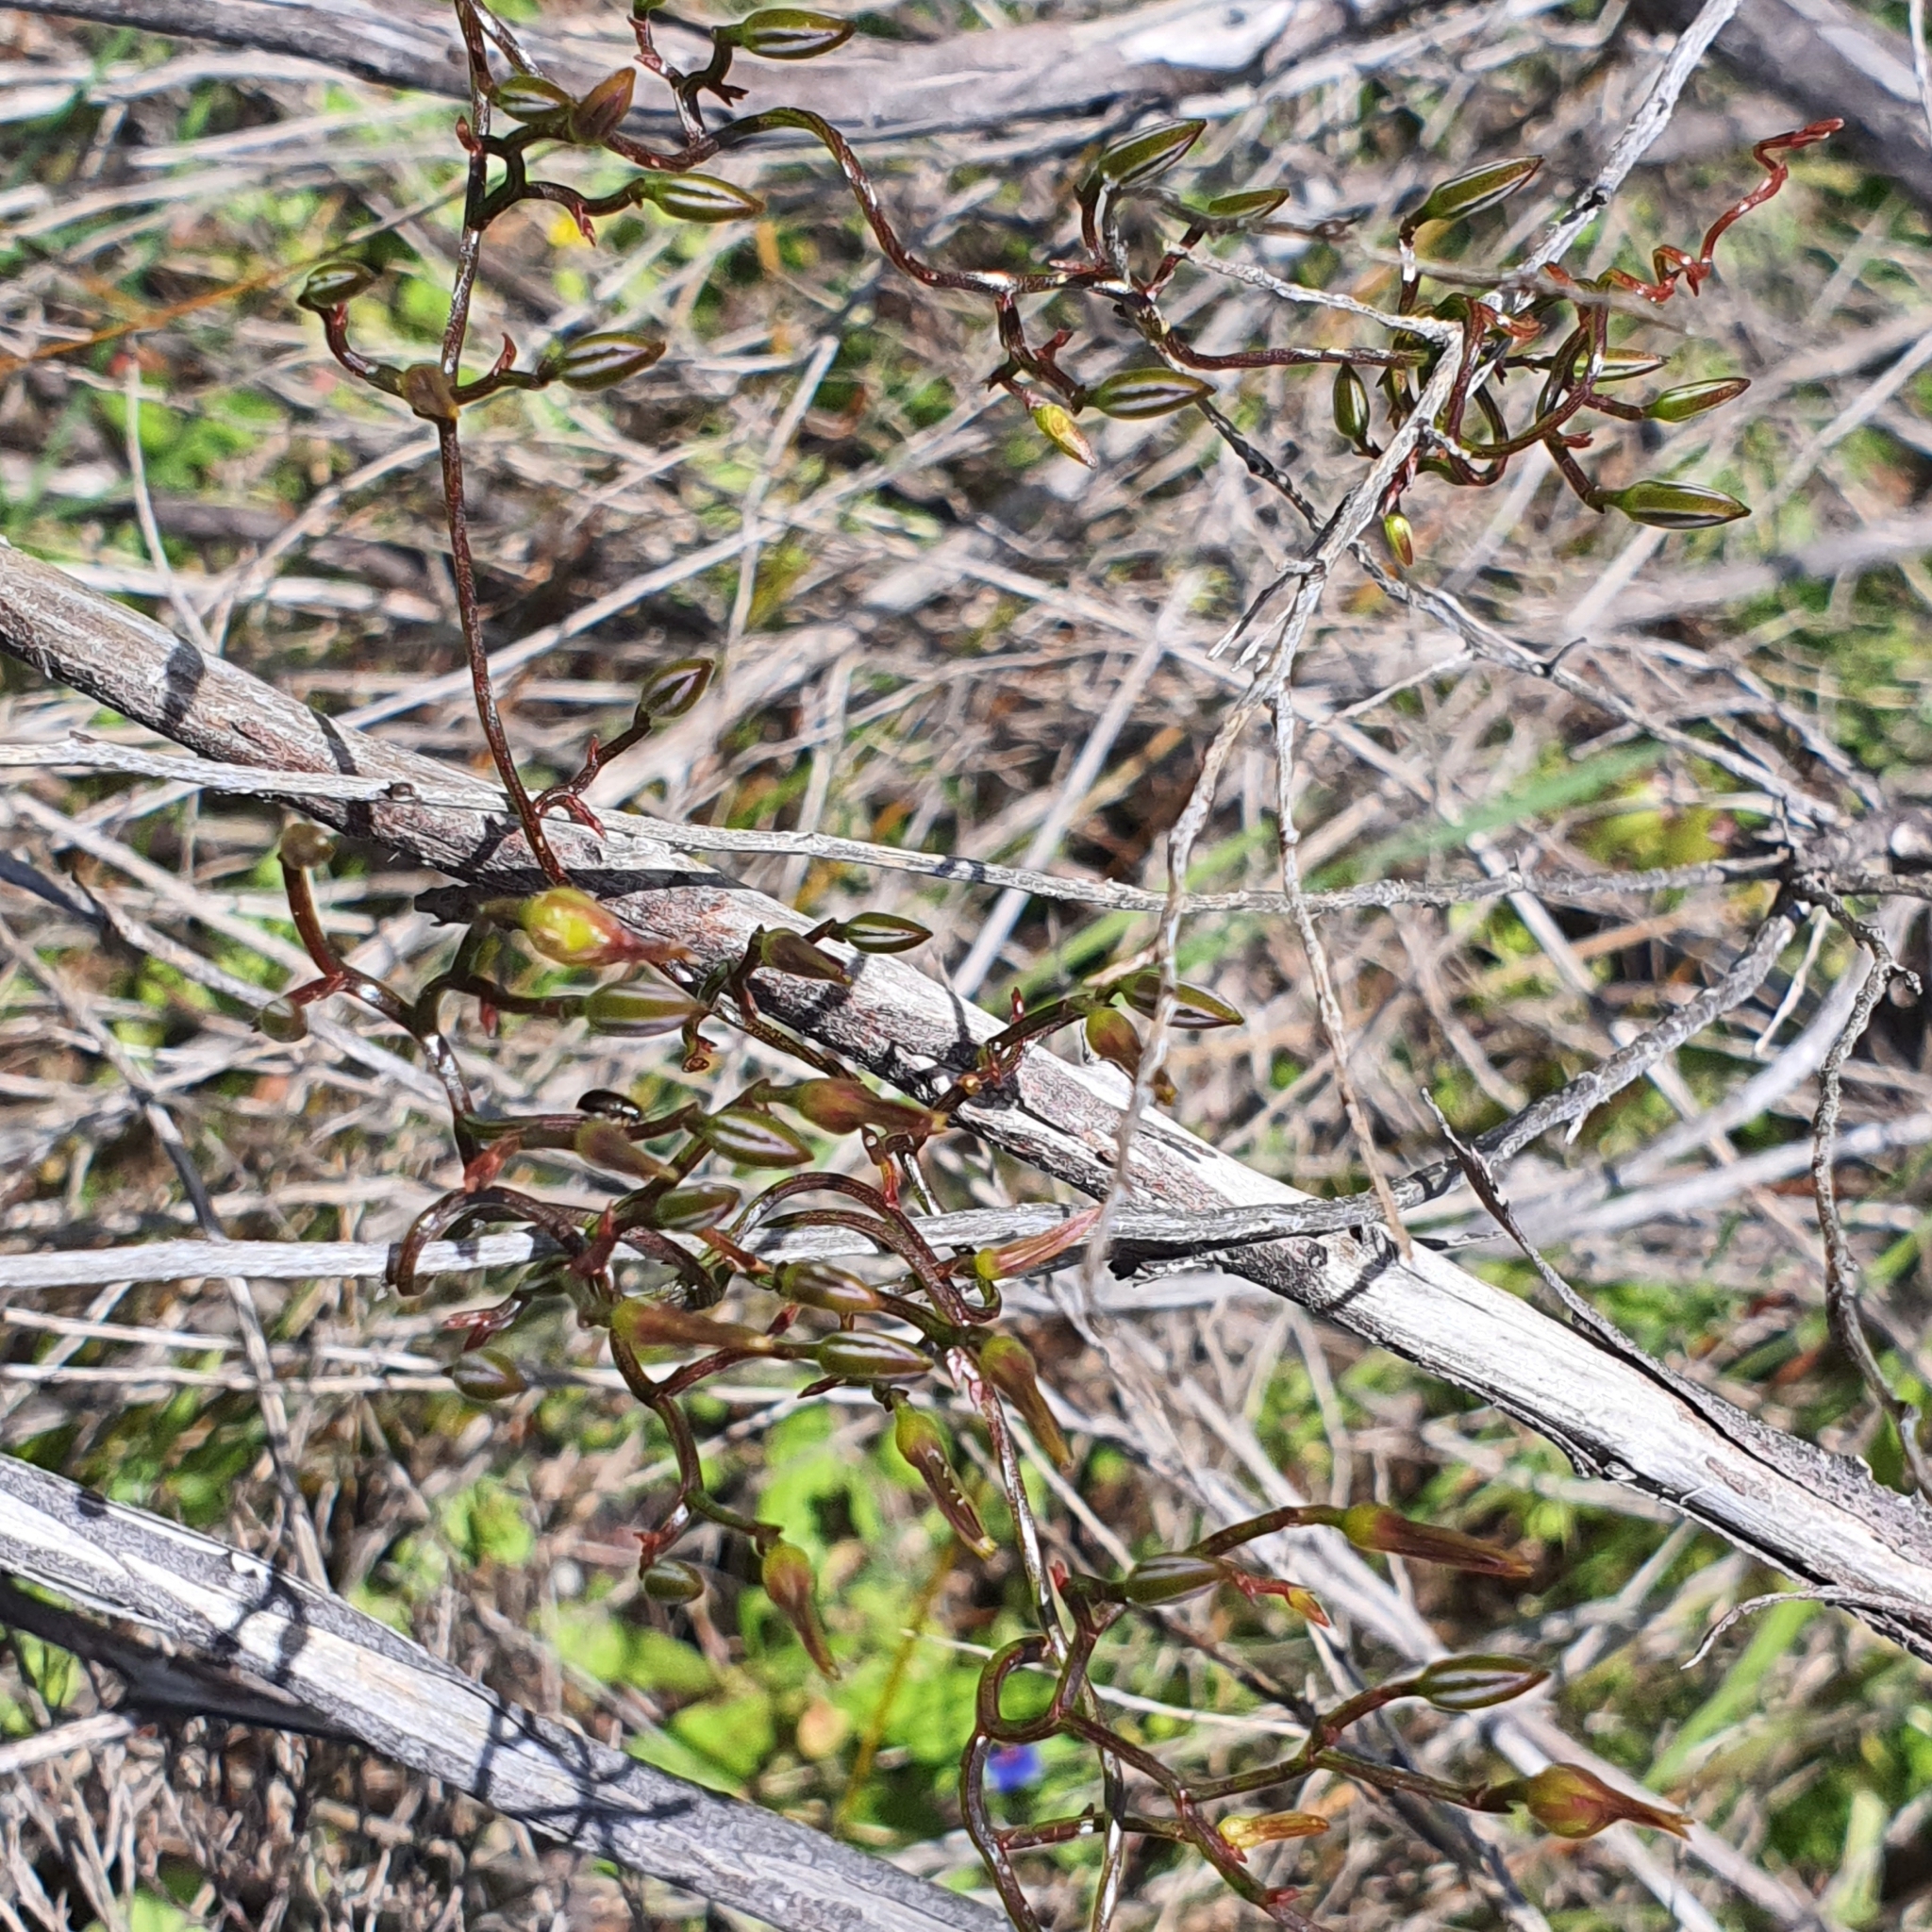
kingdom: Plantae
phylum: Tracheophyta
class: Liliopsida
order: Asparagales
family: Asparagaceae
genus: Thysanotus
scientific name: Thysanotus patersonii
